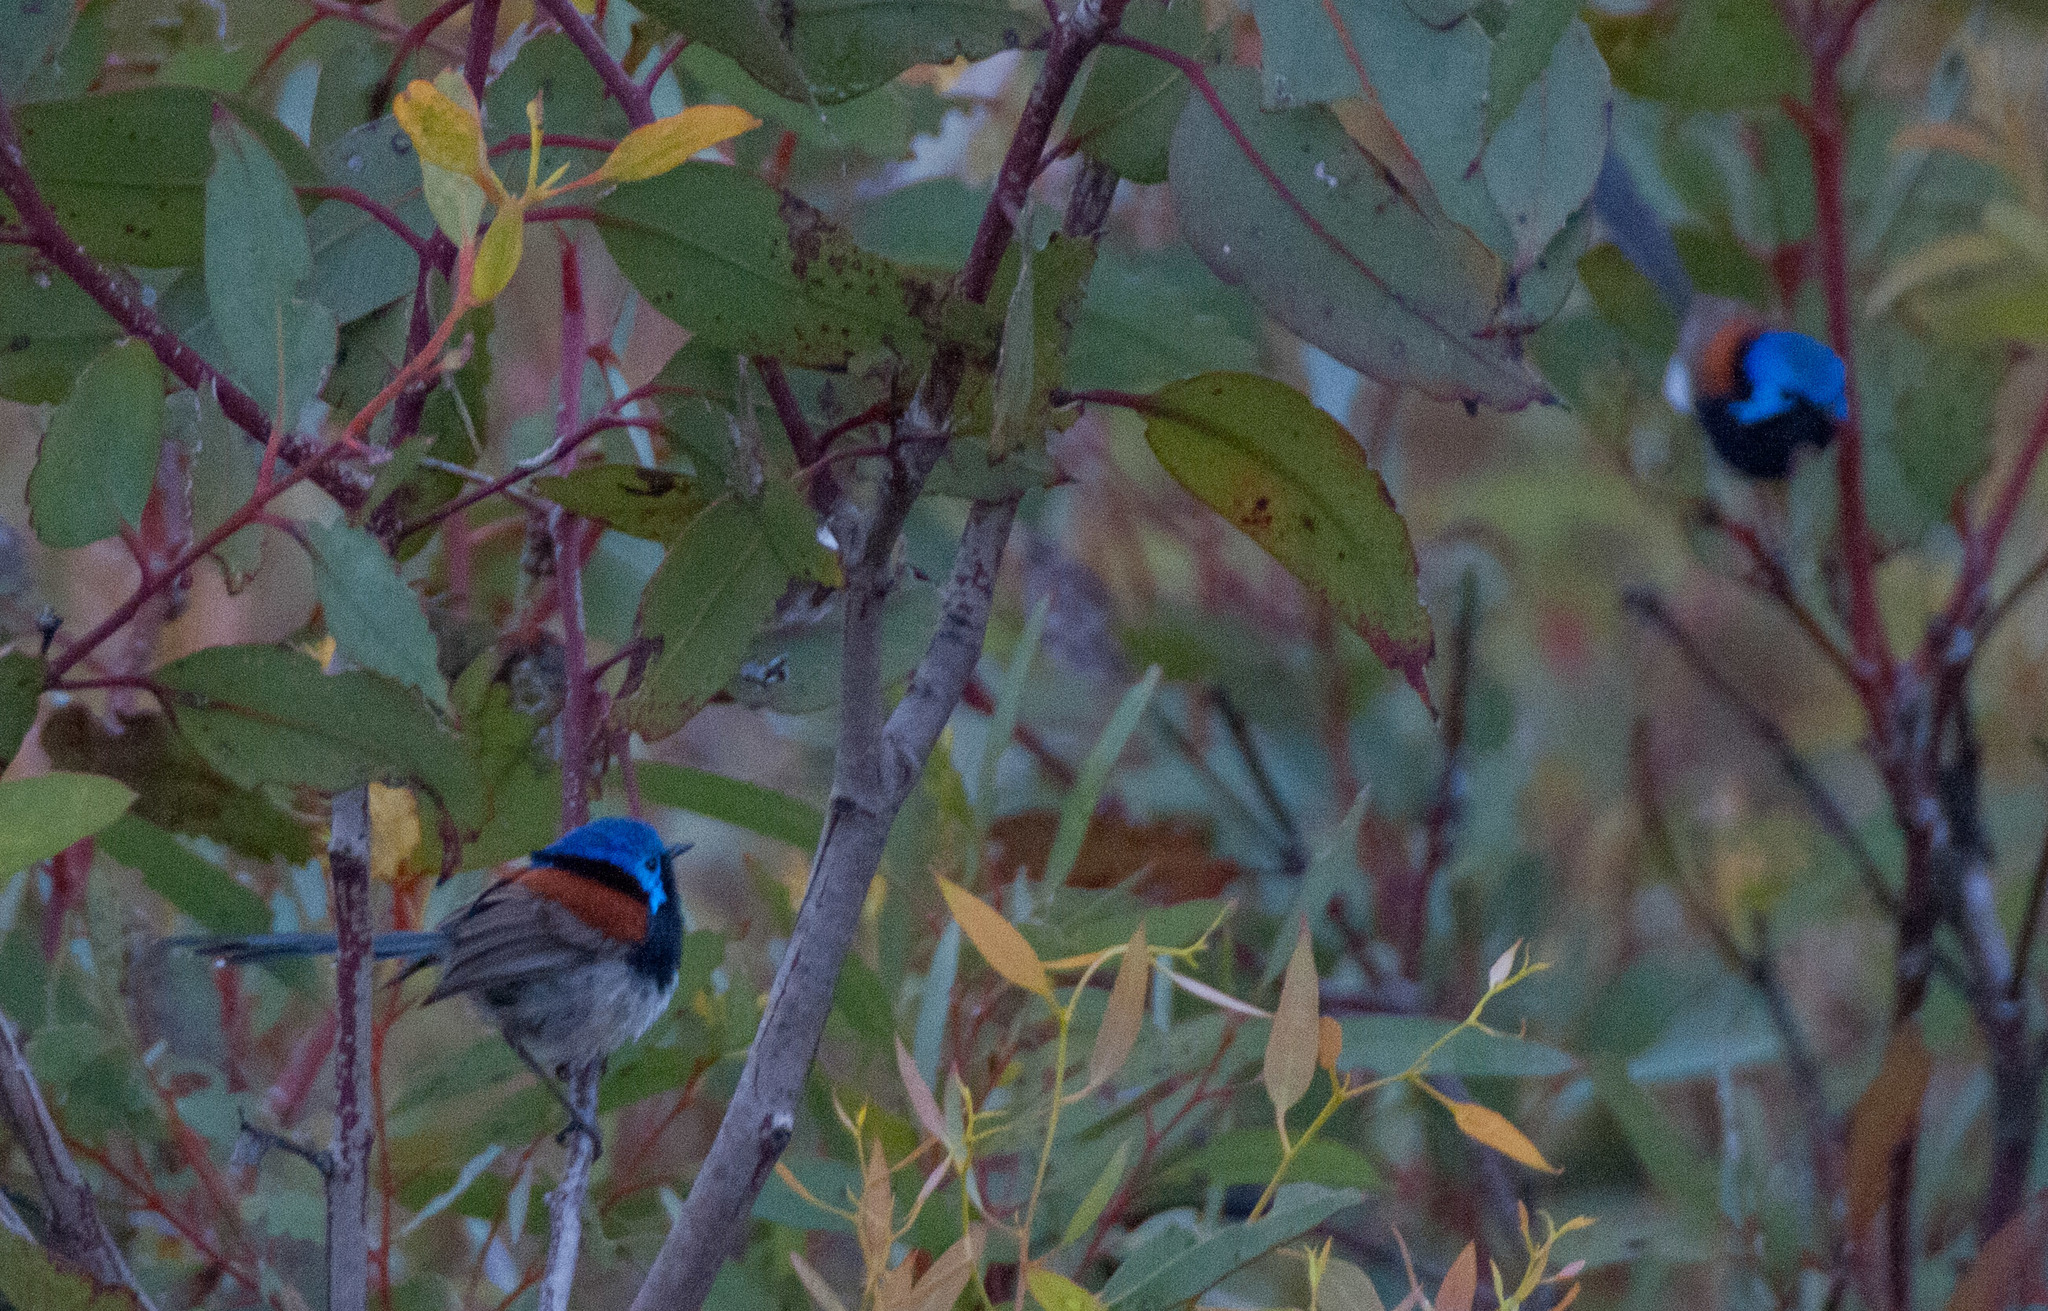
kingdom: Animalia
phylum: Chordata
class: Aves
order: Passeriformes
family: Maluridae
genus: Malurus
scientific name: Malurus pulcherrimus
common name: Blue-breasted fairywren
